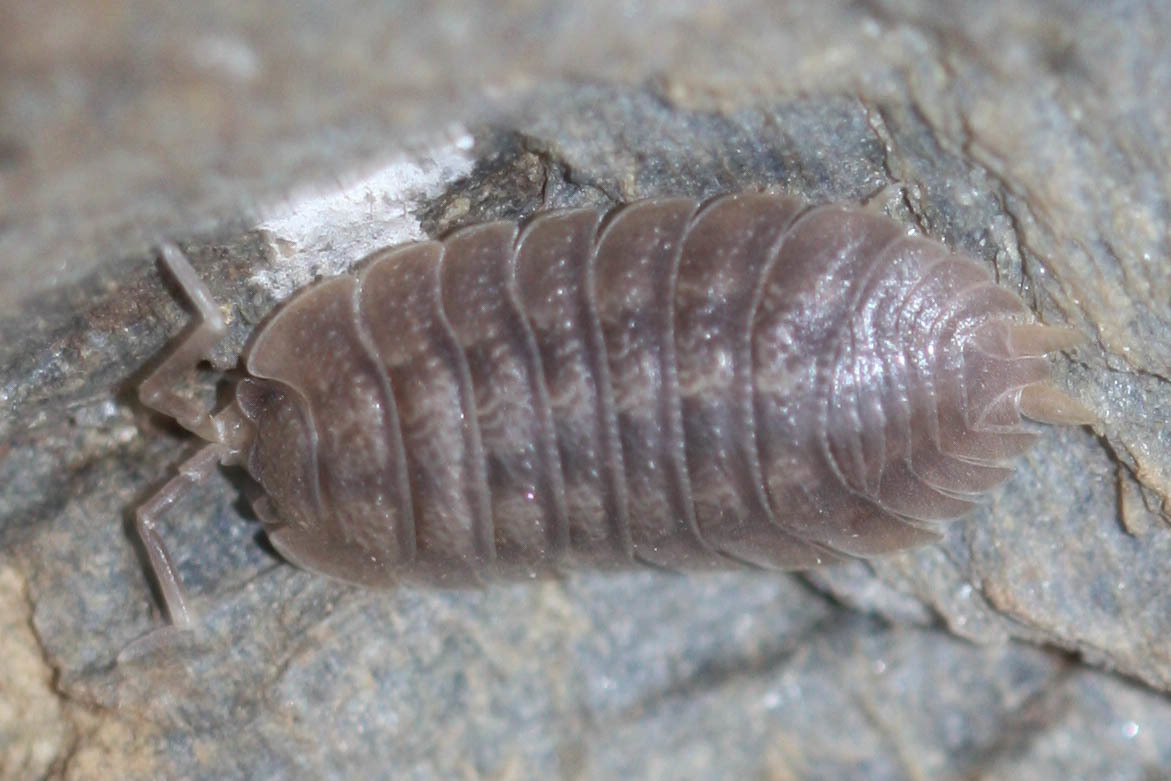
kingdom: Animalia
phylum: Arthropoda
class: Malacostraca
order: Isopoda
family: Porcellionidae
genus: Porcellio
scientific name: Porcellio dilatatus
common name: Isopod
